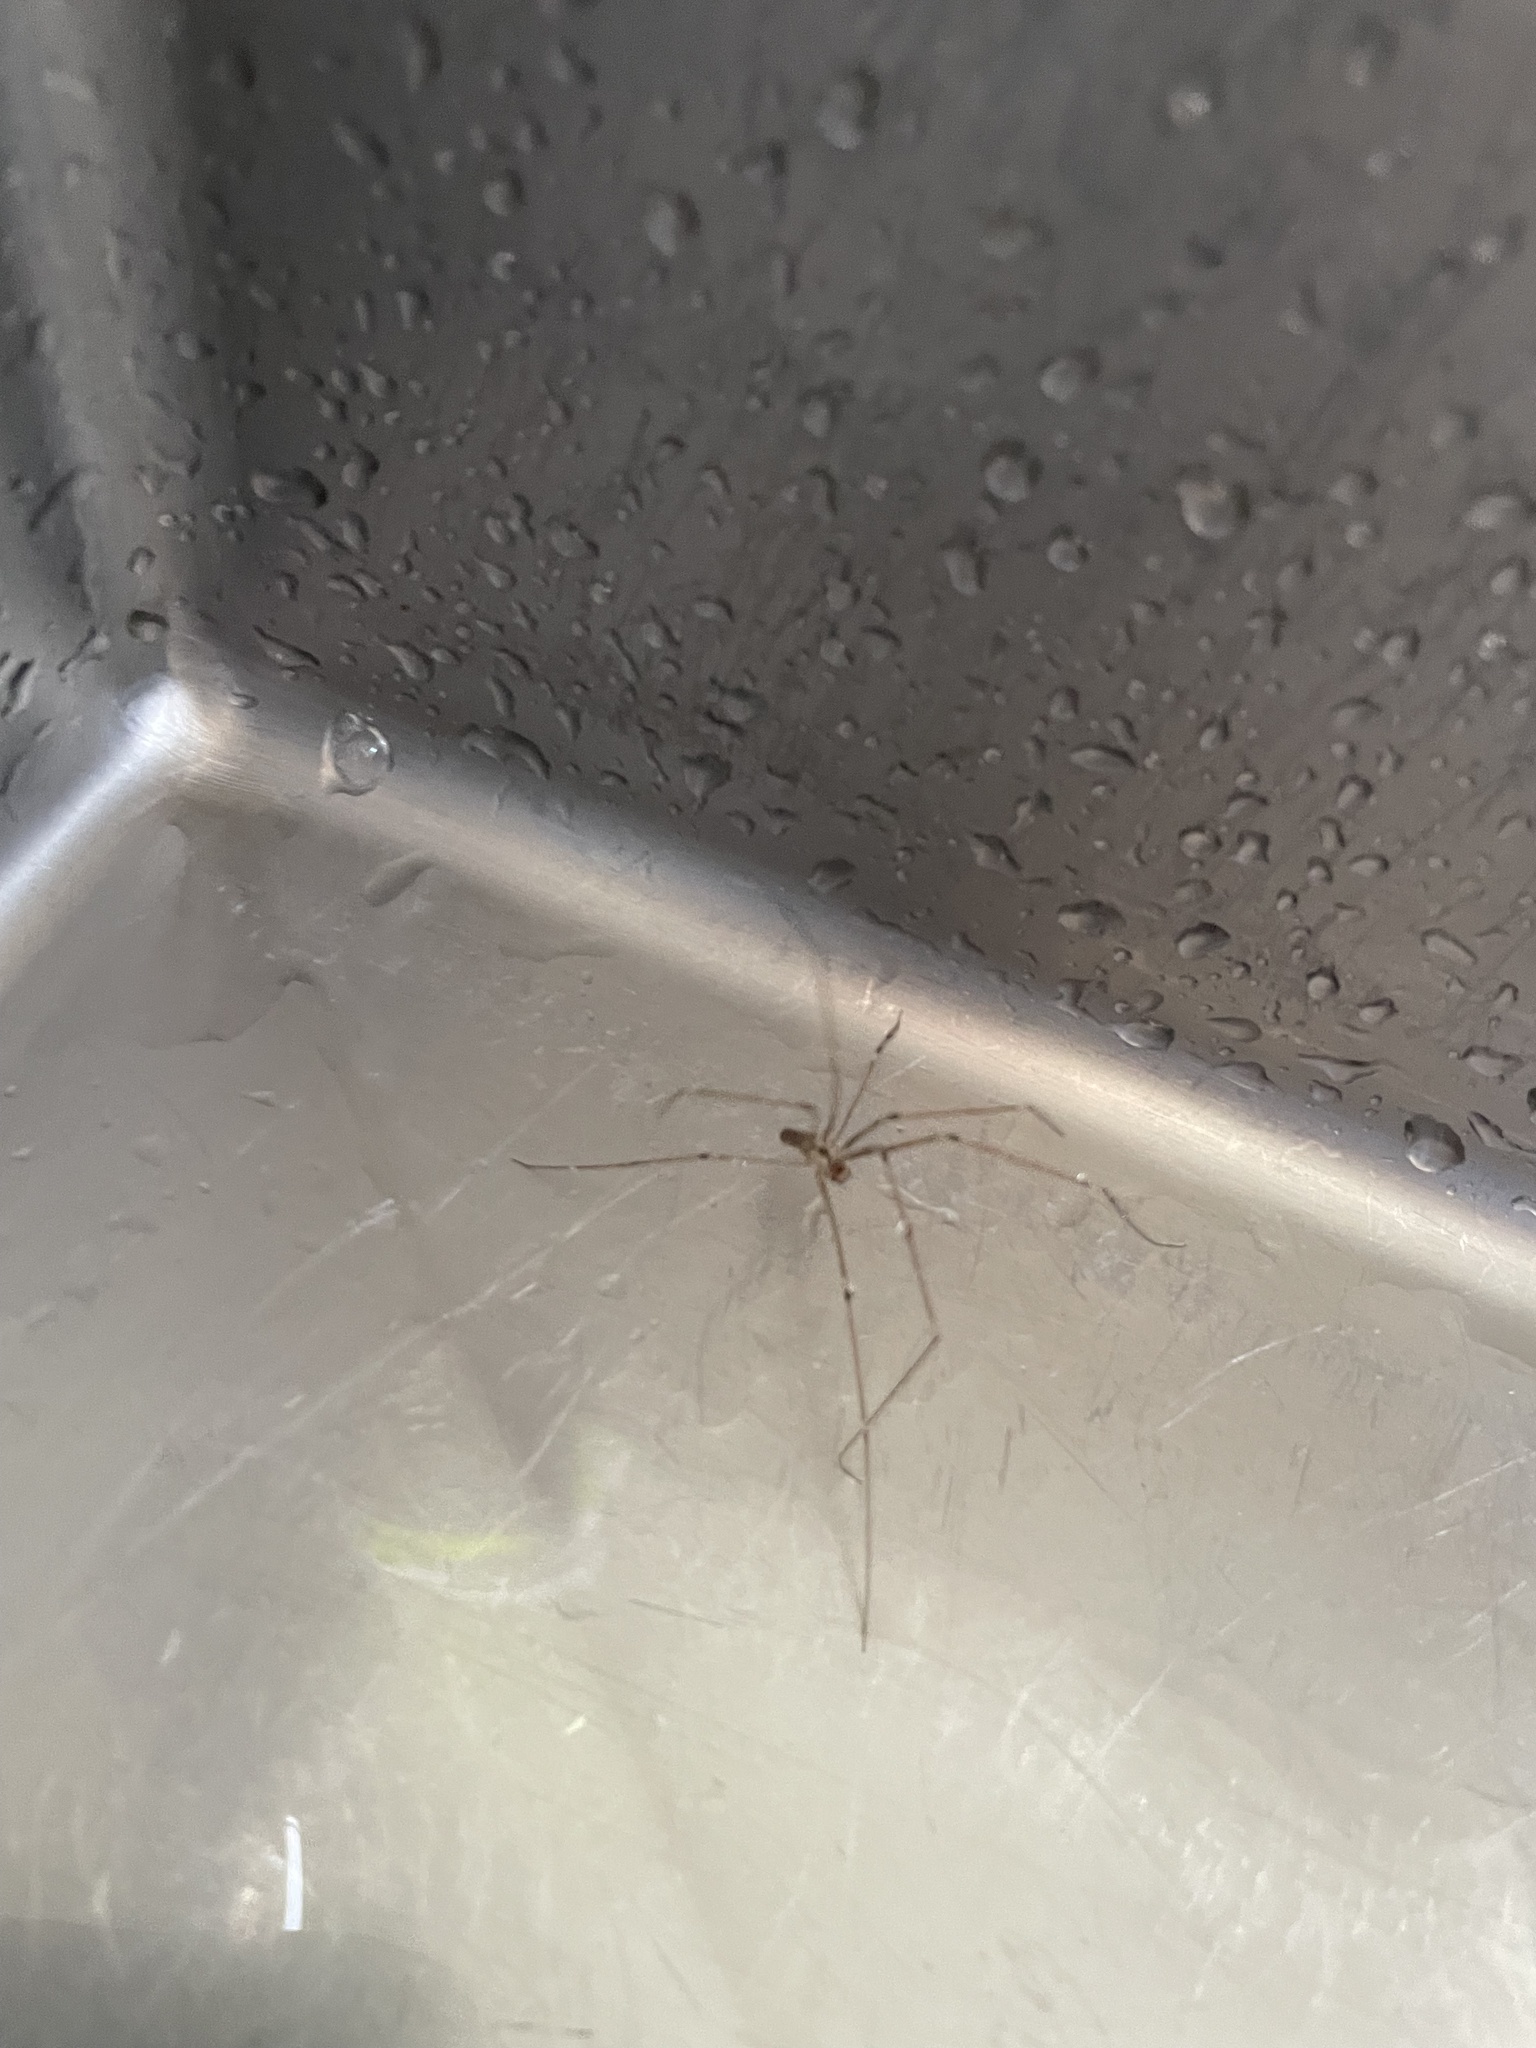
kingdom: Animalia
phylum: Arthropoda
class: Arachnida
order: Araneae
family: Pholcidae
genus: Pholcus
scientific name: Pholcus phalangioides
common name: Longbodied cellar spider
